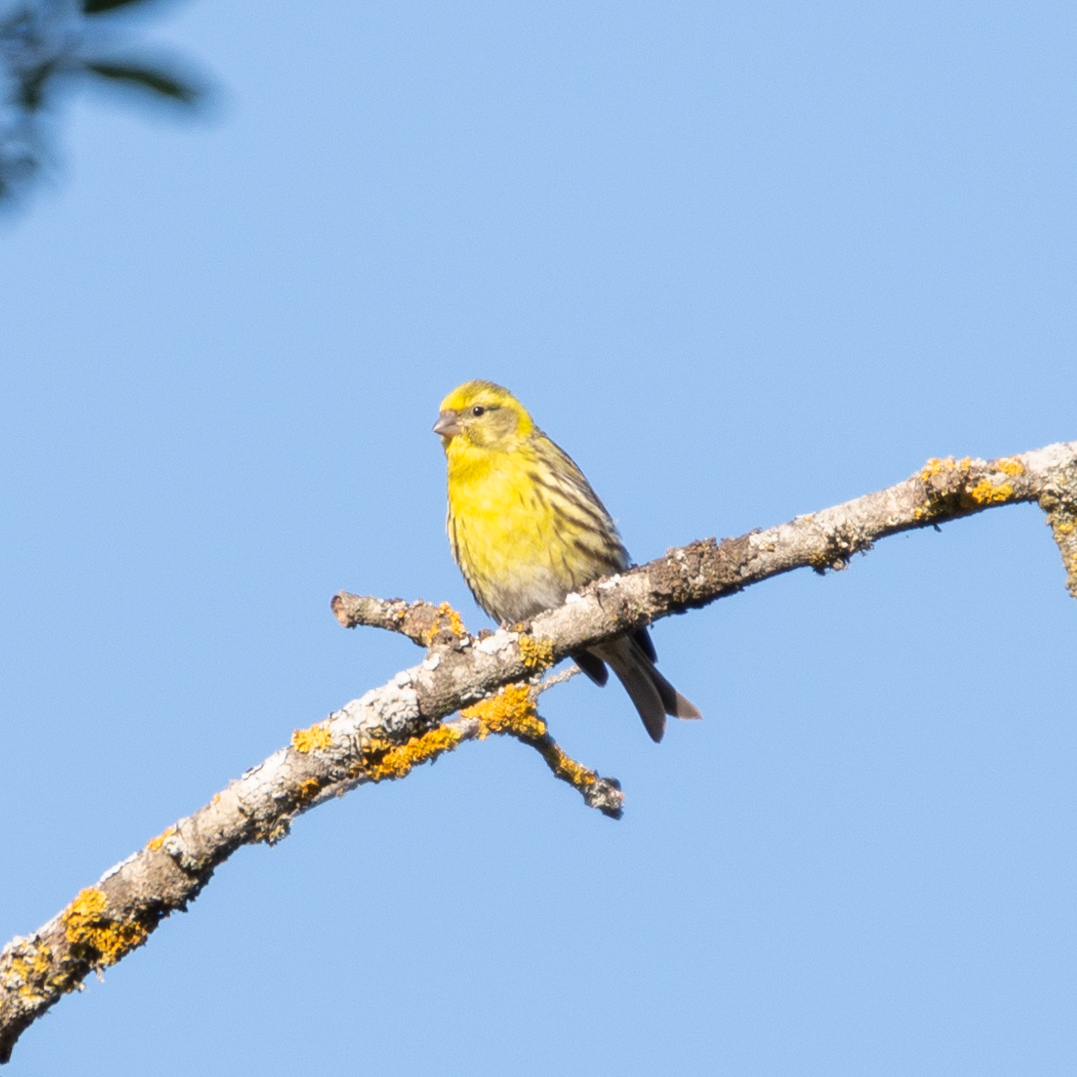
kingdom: Animalia
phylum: Chordata
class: Aves
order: Passeriformes
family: Fringillidae
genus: Serinus
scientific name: Serinus serinus
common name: European serin
